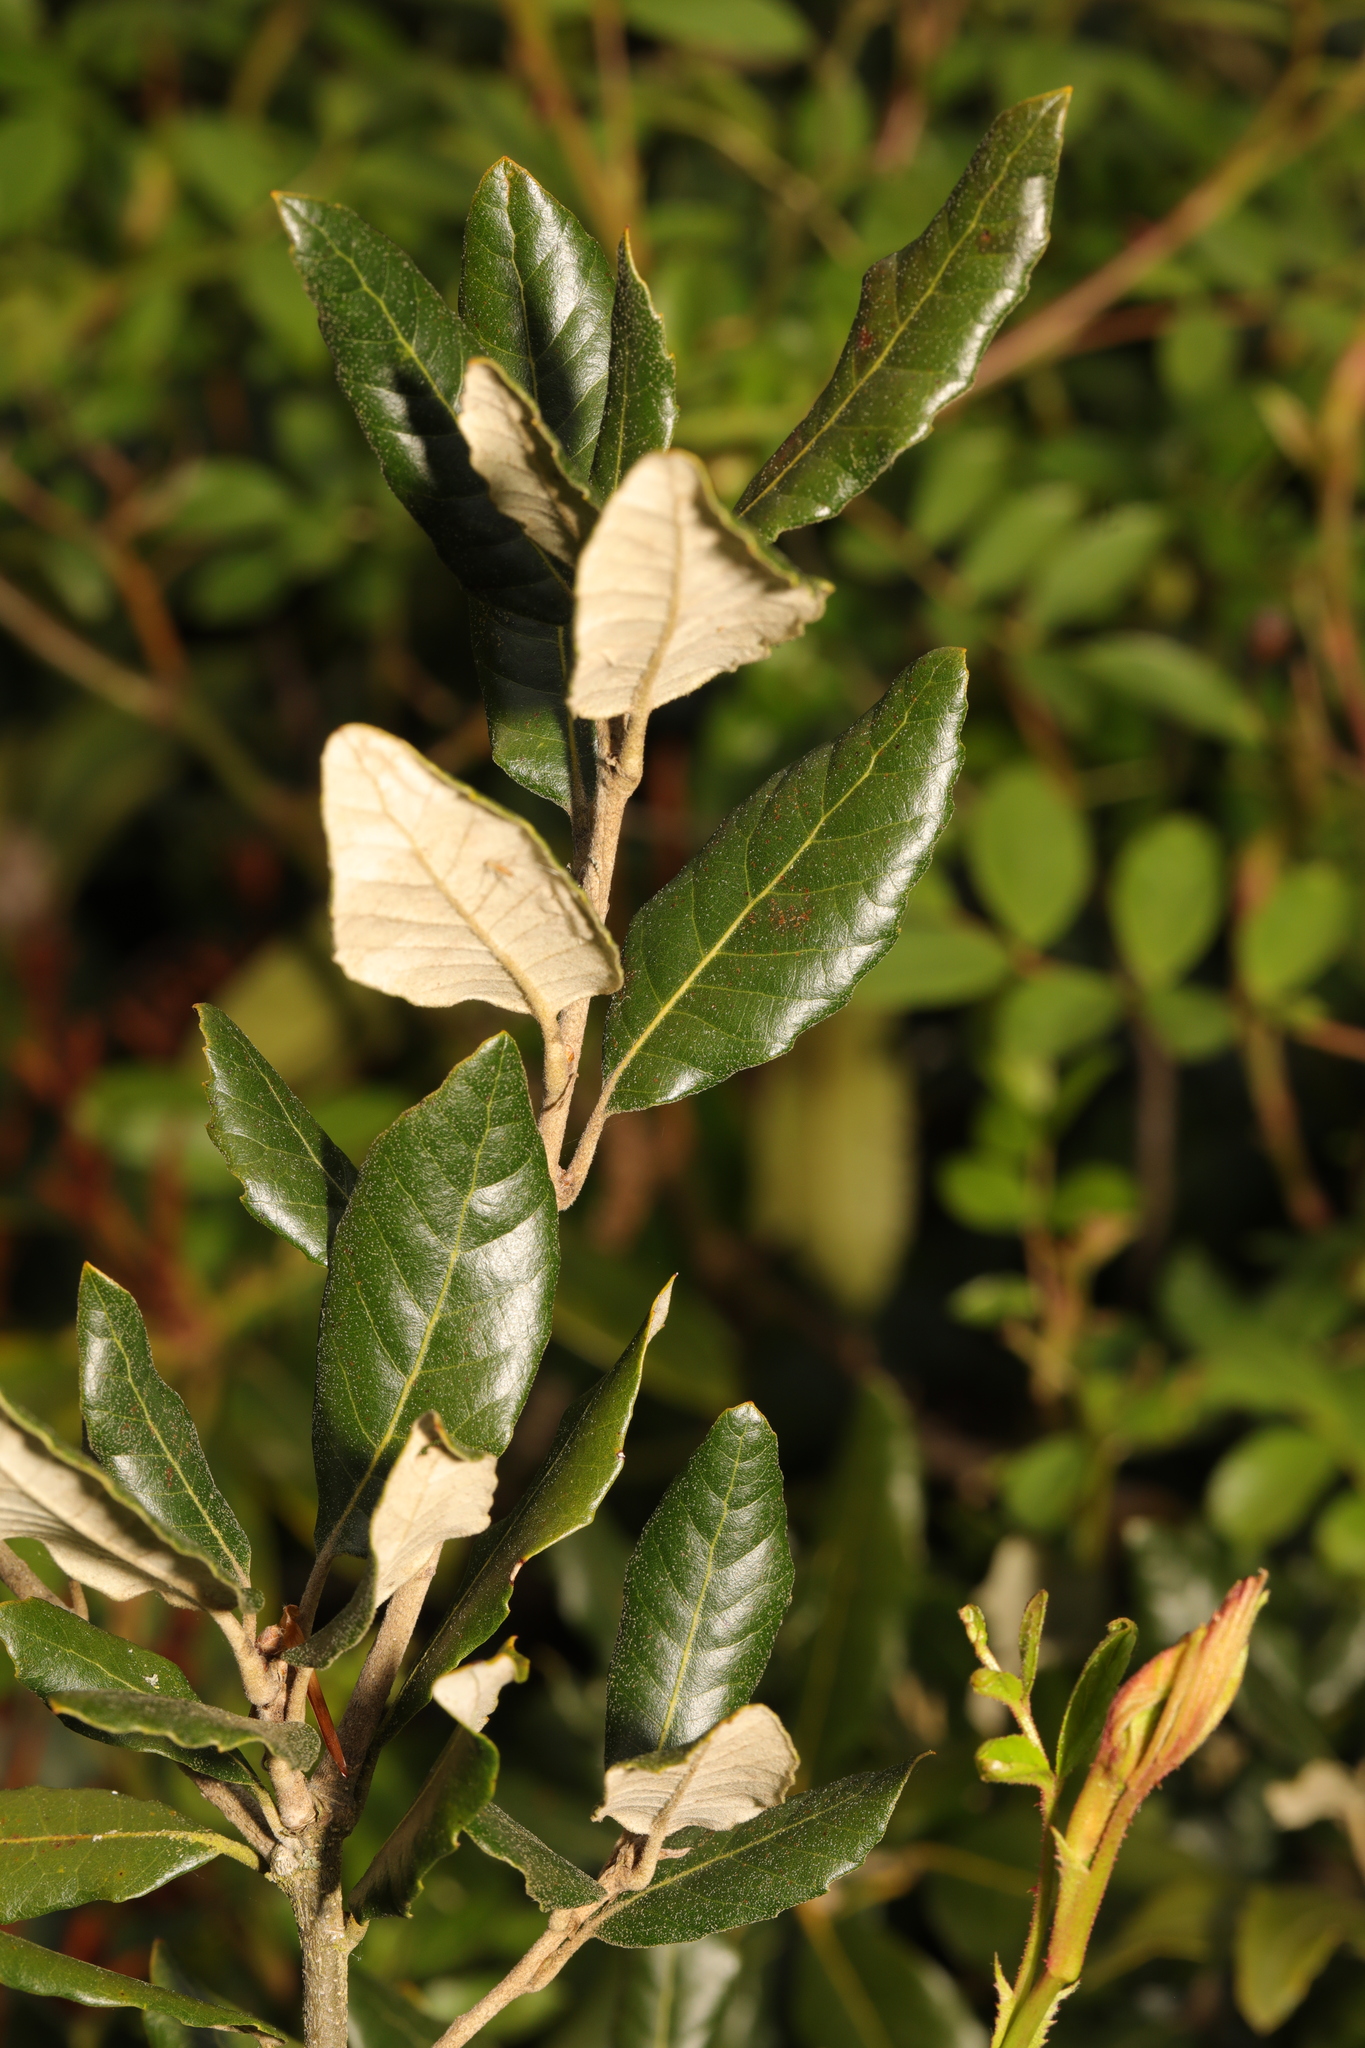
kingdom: Plantae
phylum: Tracheophyta
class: Magnoliopsida
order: Fagales
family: Fagaceae
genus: Quercus
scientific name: Quercus ilex
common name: Evergreen oak
